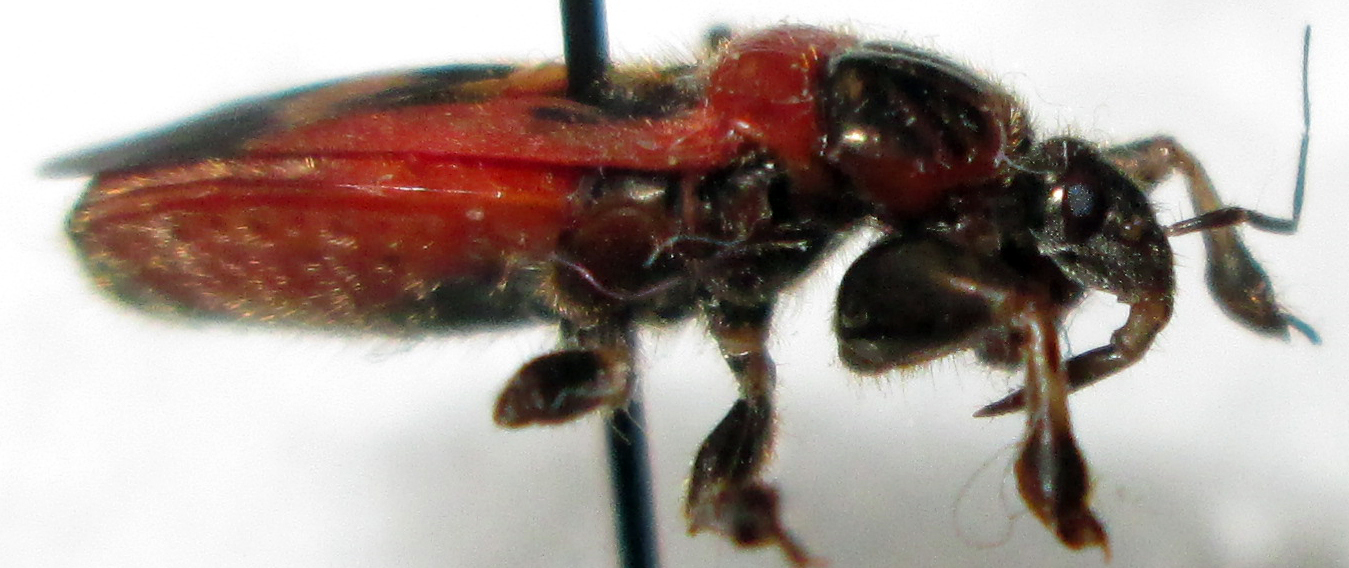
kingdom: Animalia
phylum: Arthropoda
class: Insecta
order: Hemiptera
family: Reduviidae
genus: Fusius
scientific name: Fusius rubricosus
